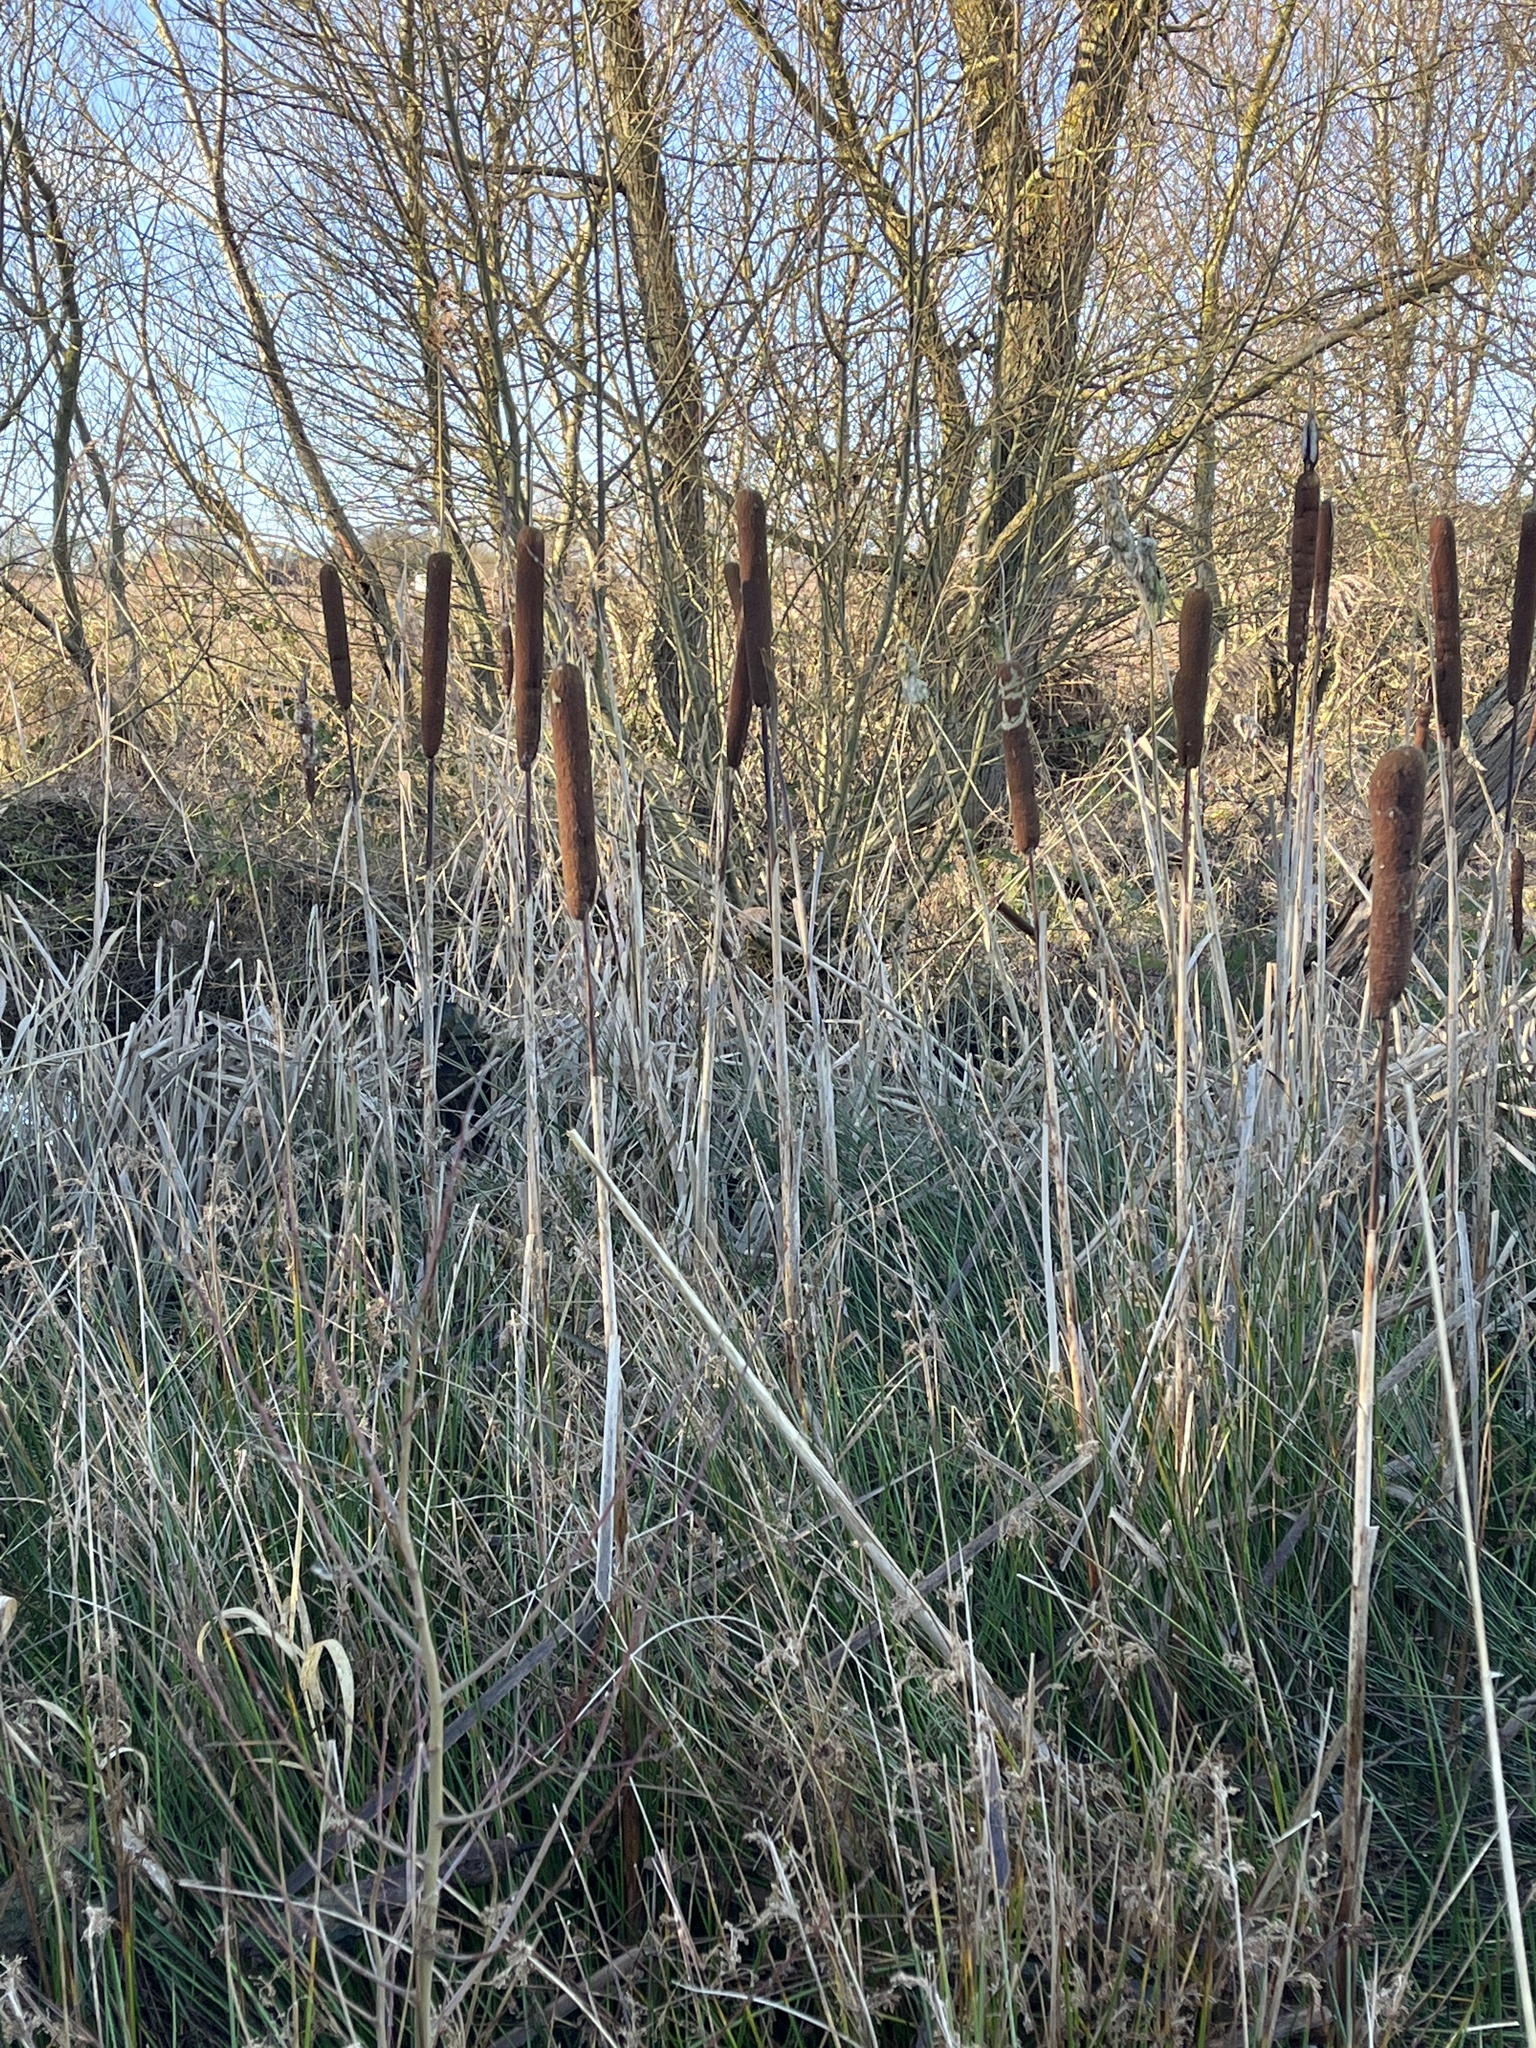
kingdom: Plantae
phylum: Tracheophyta
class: Liliopsida
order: Poales
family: Typhaceae
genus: Typha
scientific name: Typha latifolia
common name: Broadleaf cattail
